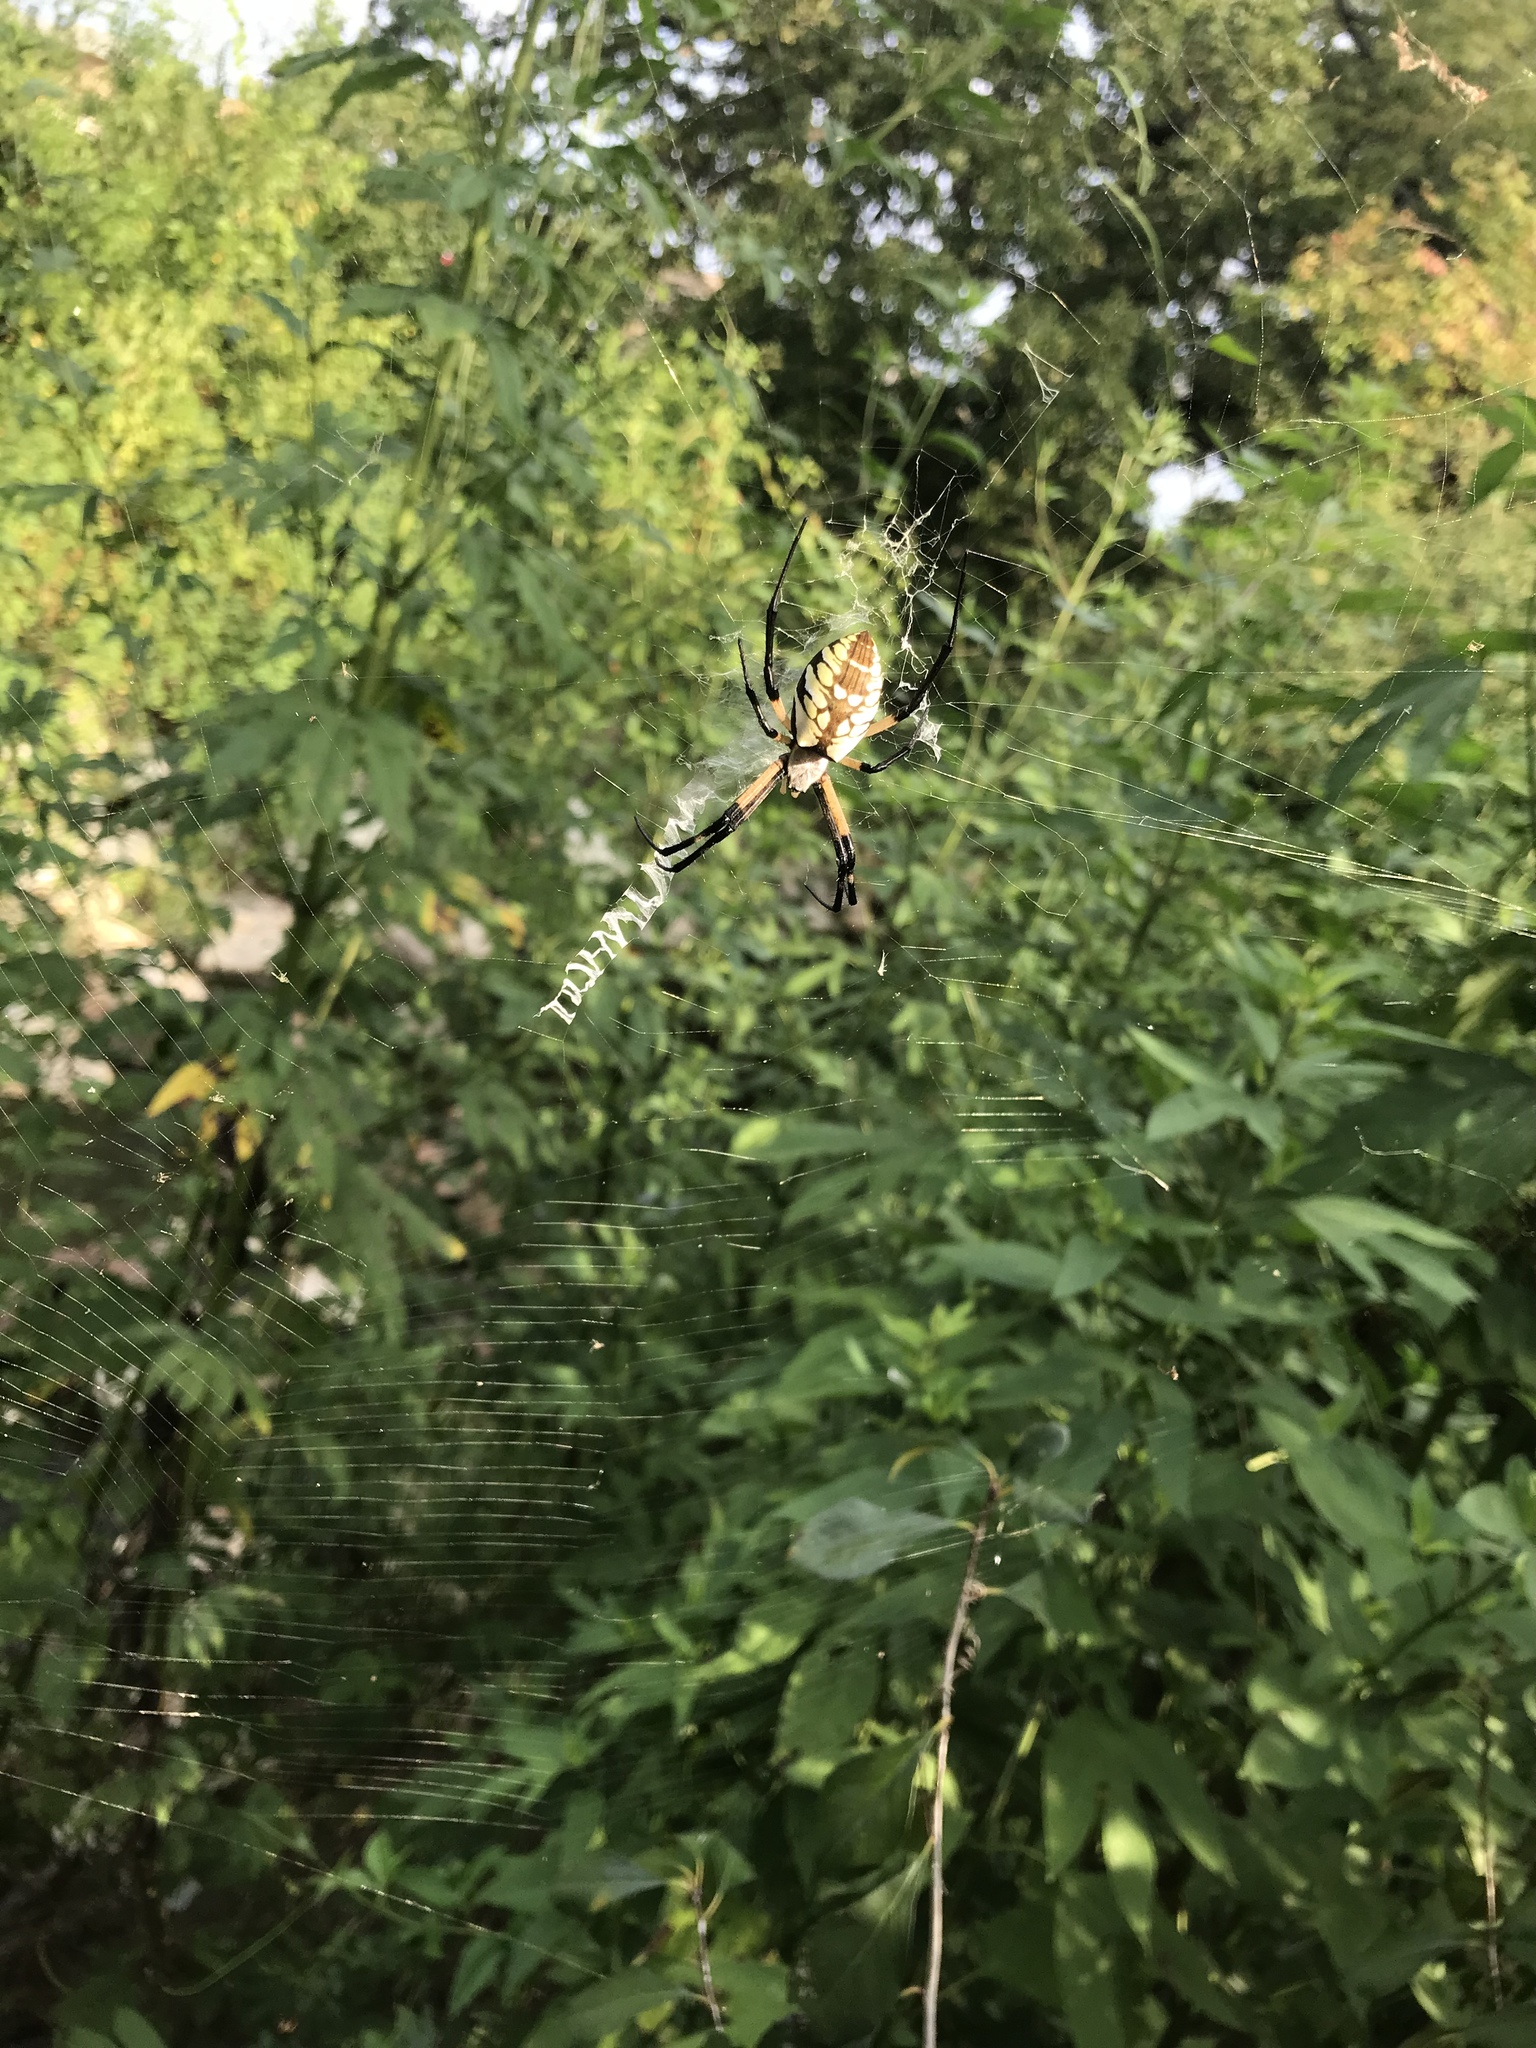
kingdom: Animalia
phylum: Arthropoda
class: Arachnida
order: Araneae
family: Araneidae
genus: Argiope
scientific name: Argiope aurantia
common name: Orb weavers
